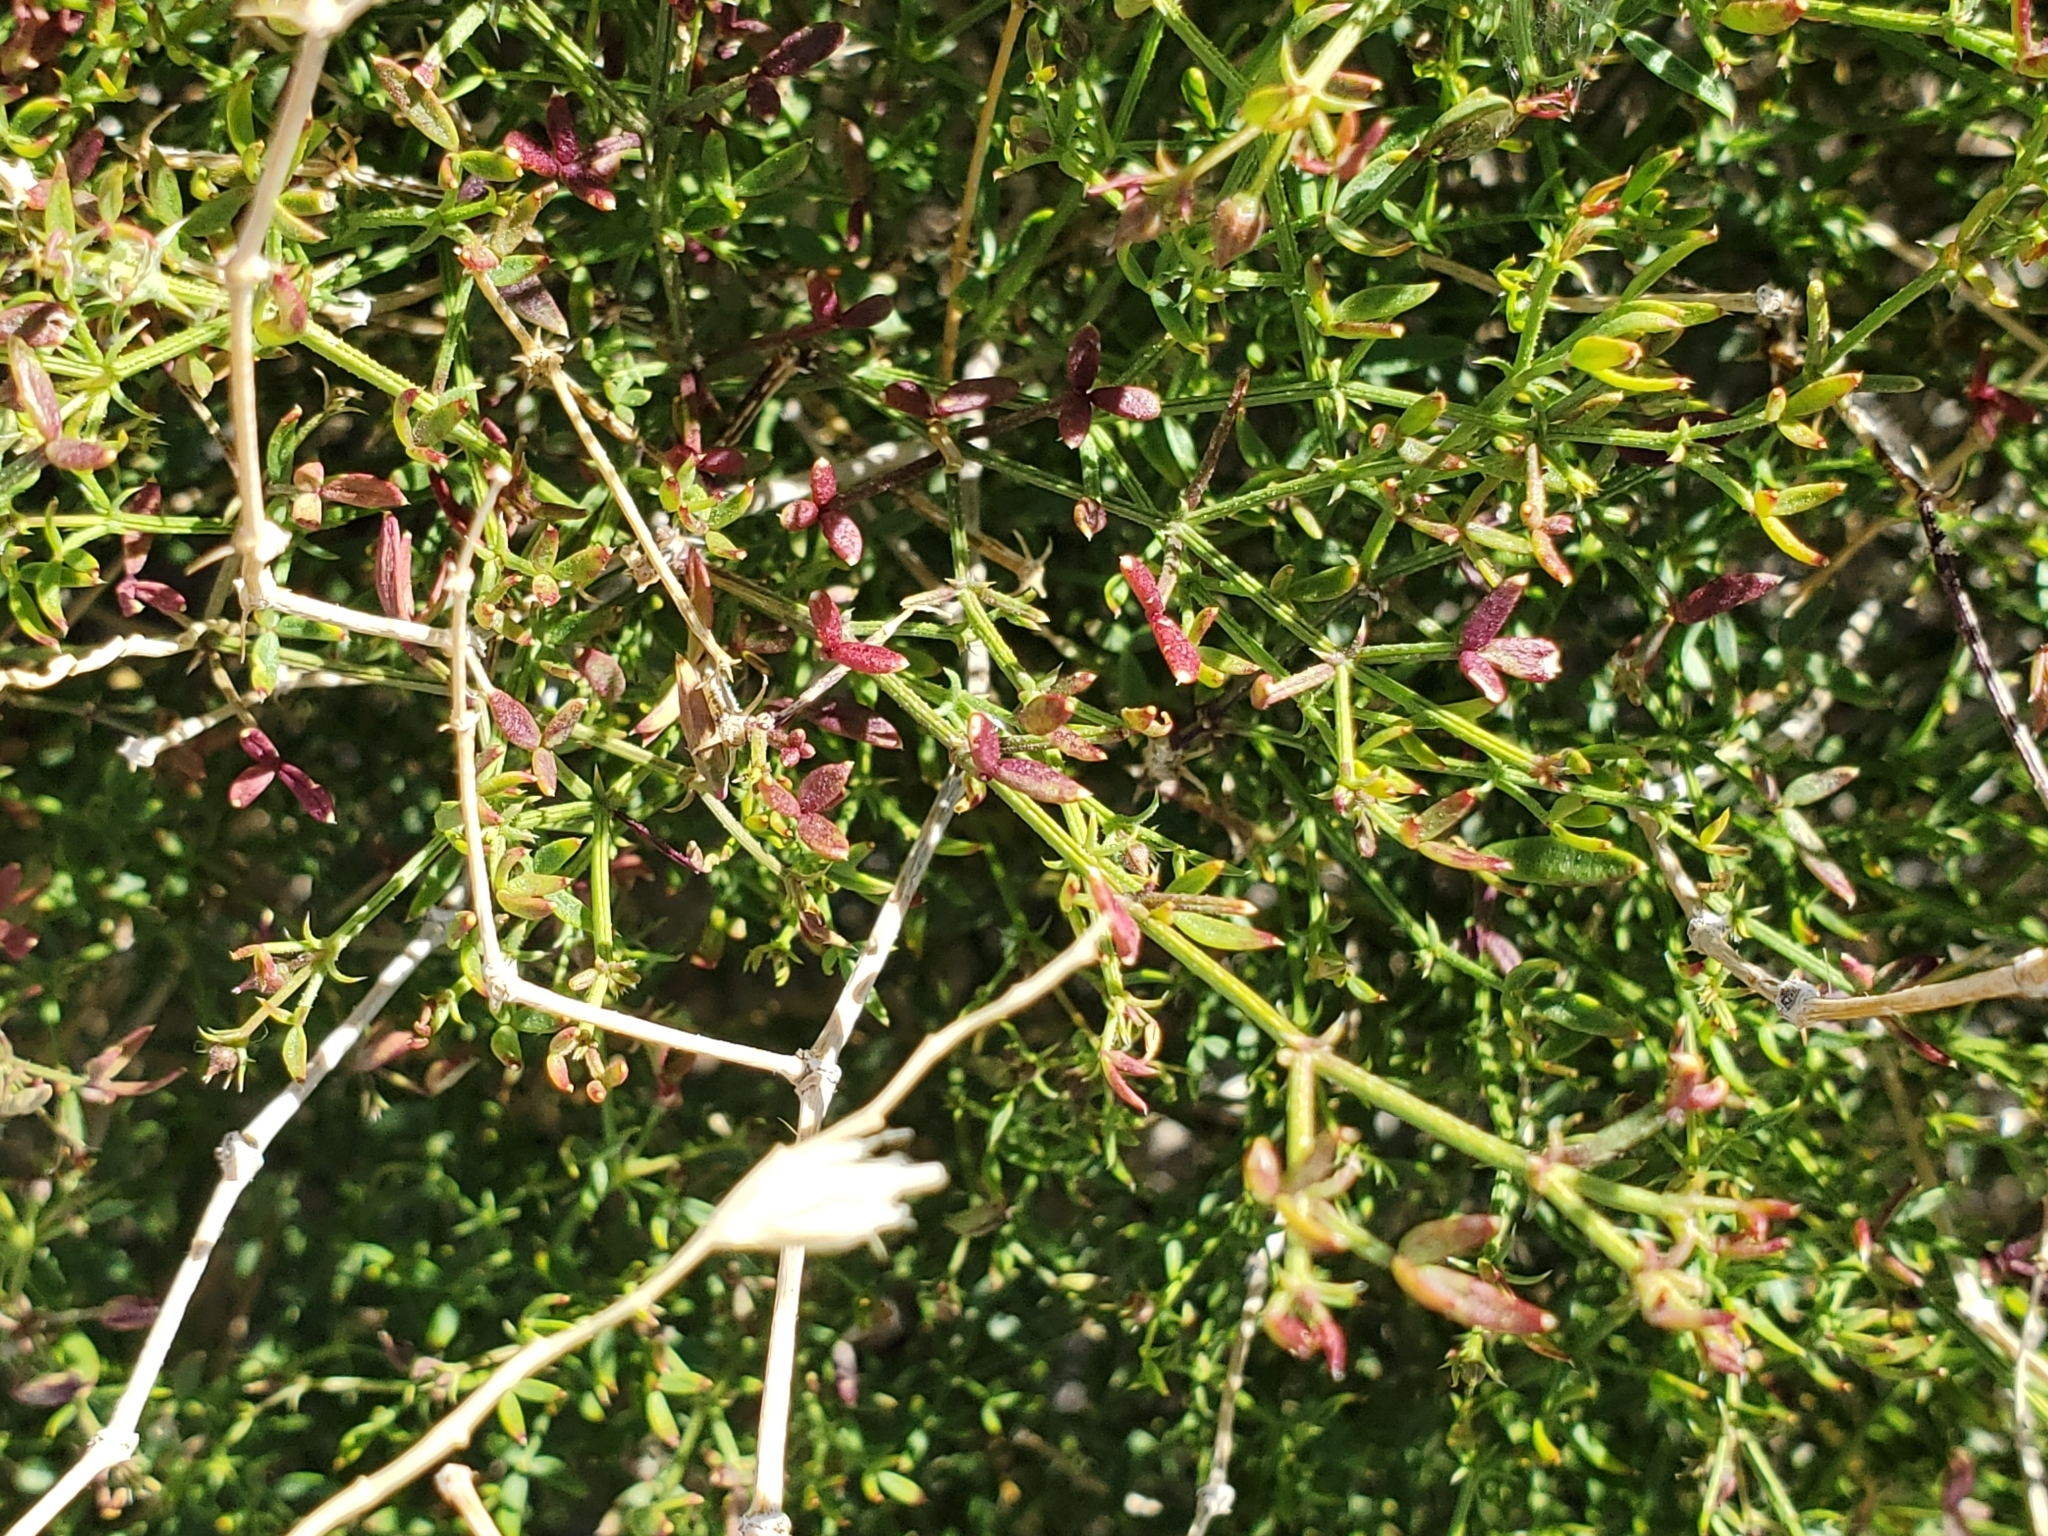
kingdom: Plantae
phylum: Tracheophyta
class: Magnoliopsida
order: Zygophyllales
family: Zygophyllaceae
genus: Fagonia
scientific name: Fagonia laevis
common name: California fagonbush
